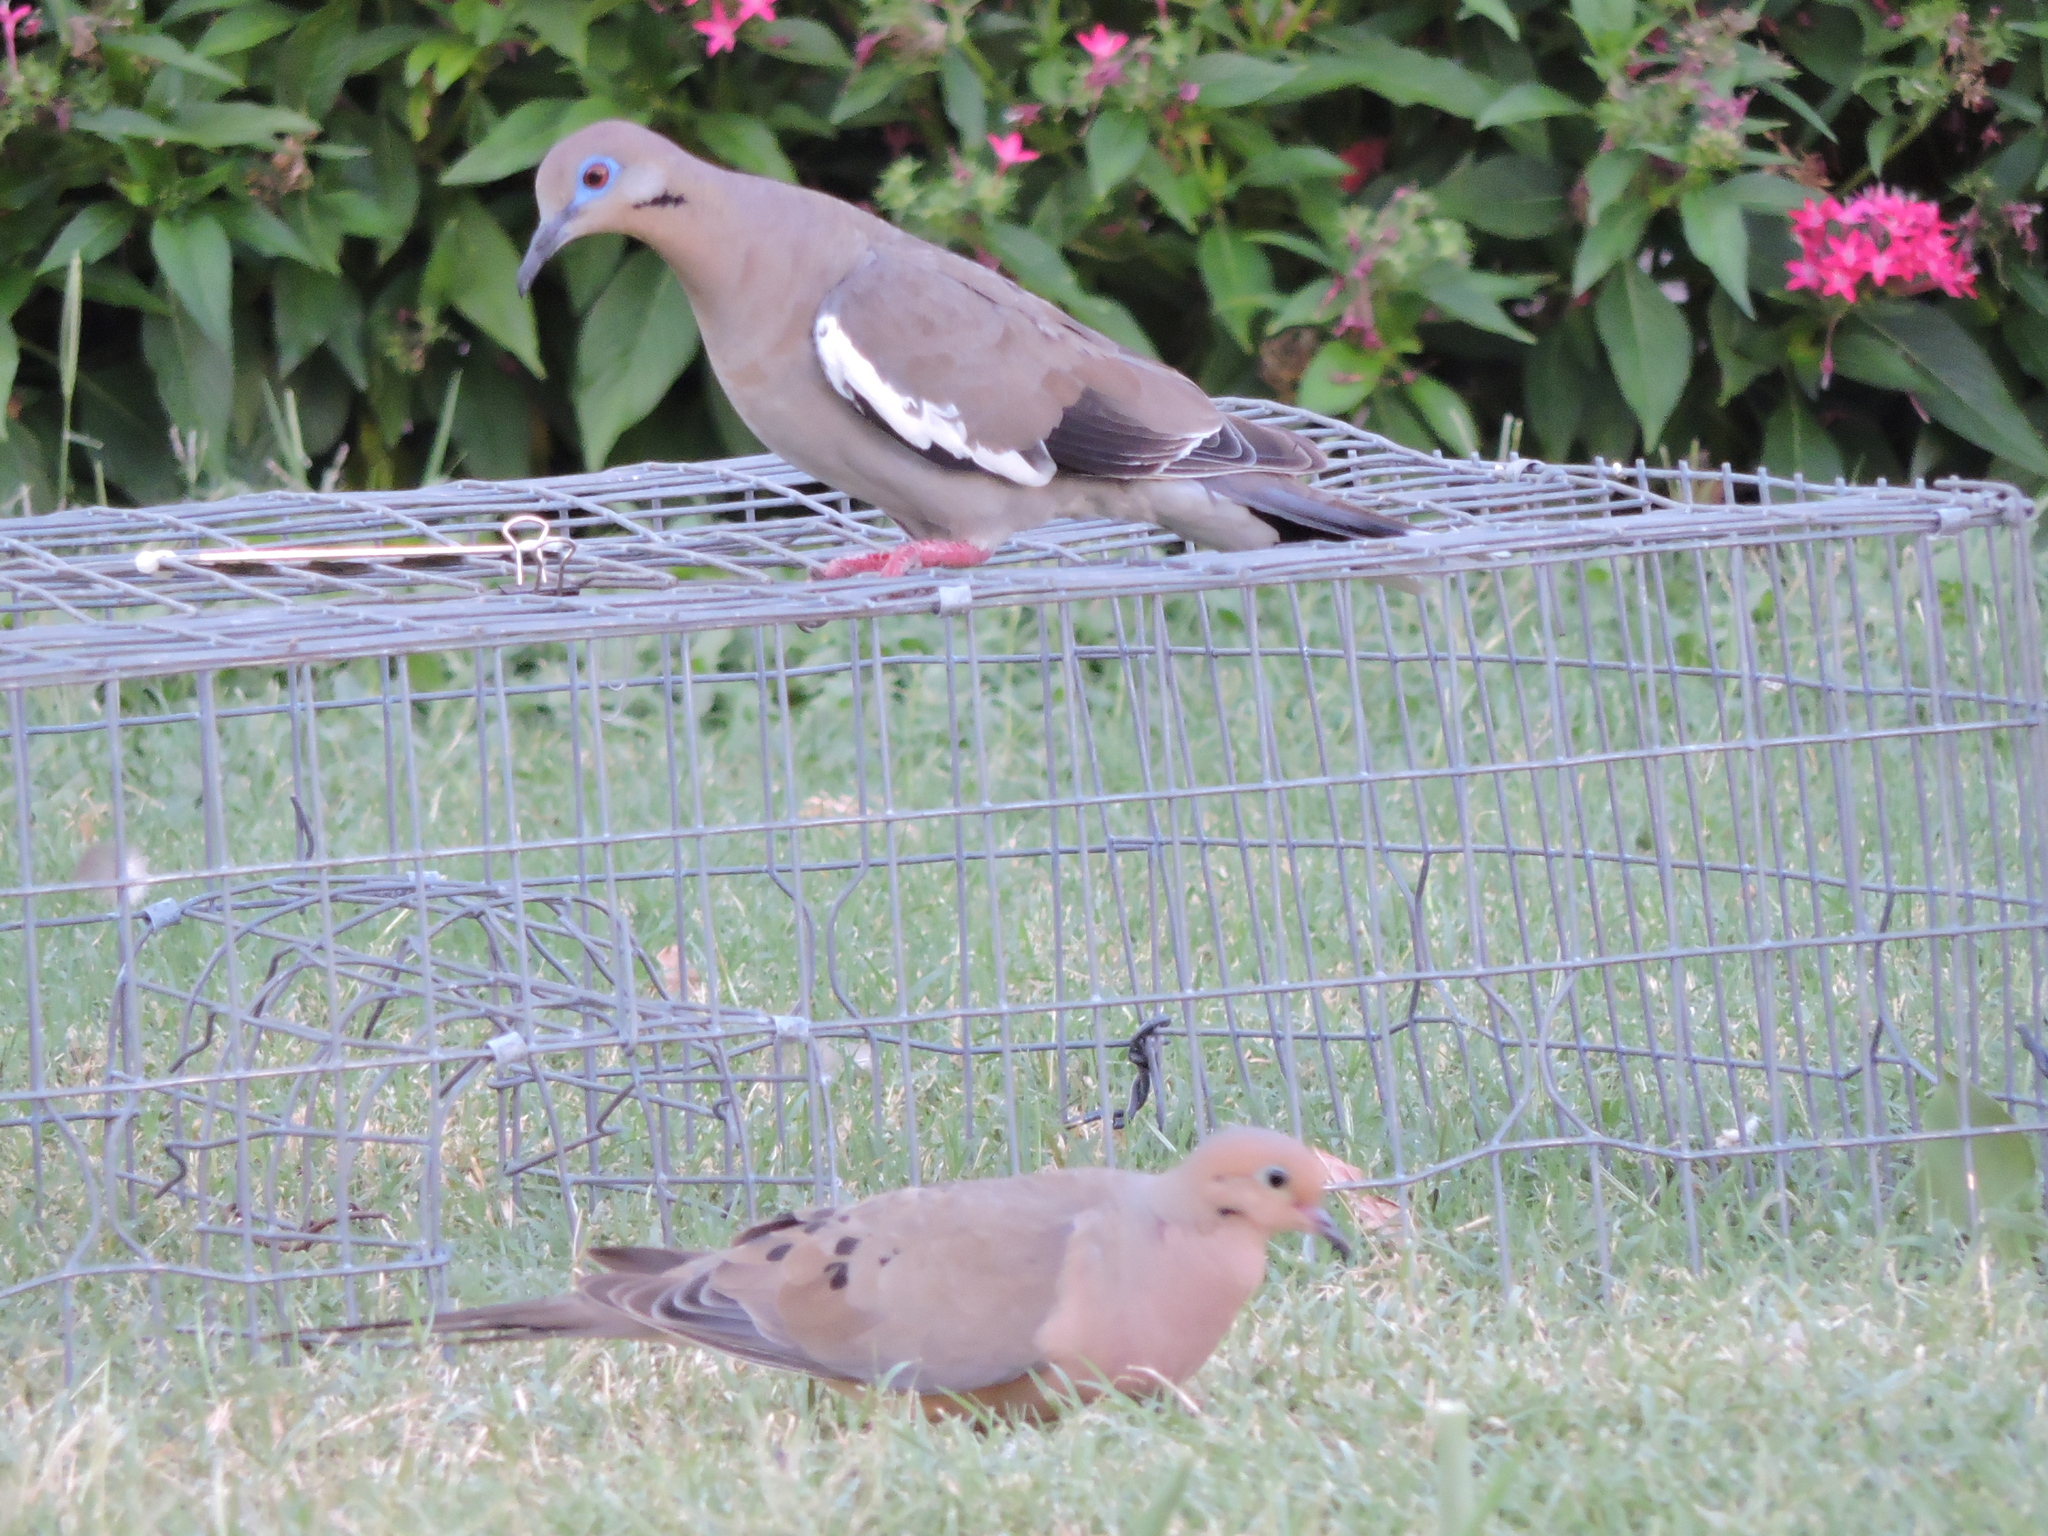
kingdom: Animalia
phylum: Chordata
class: Aves
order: Columbiformes
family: Columbidae
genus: Zenaida
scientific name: Zenaida asiatica
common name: White-winged dove
